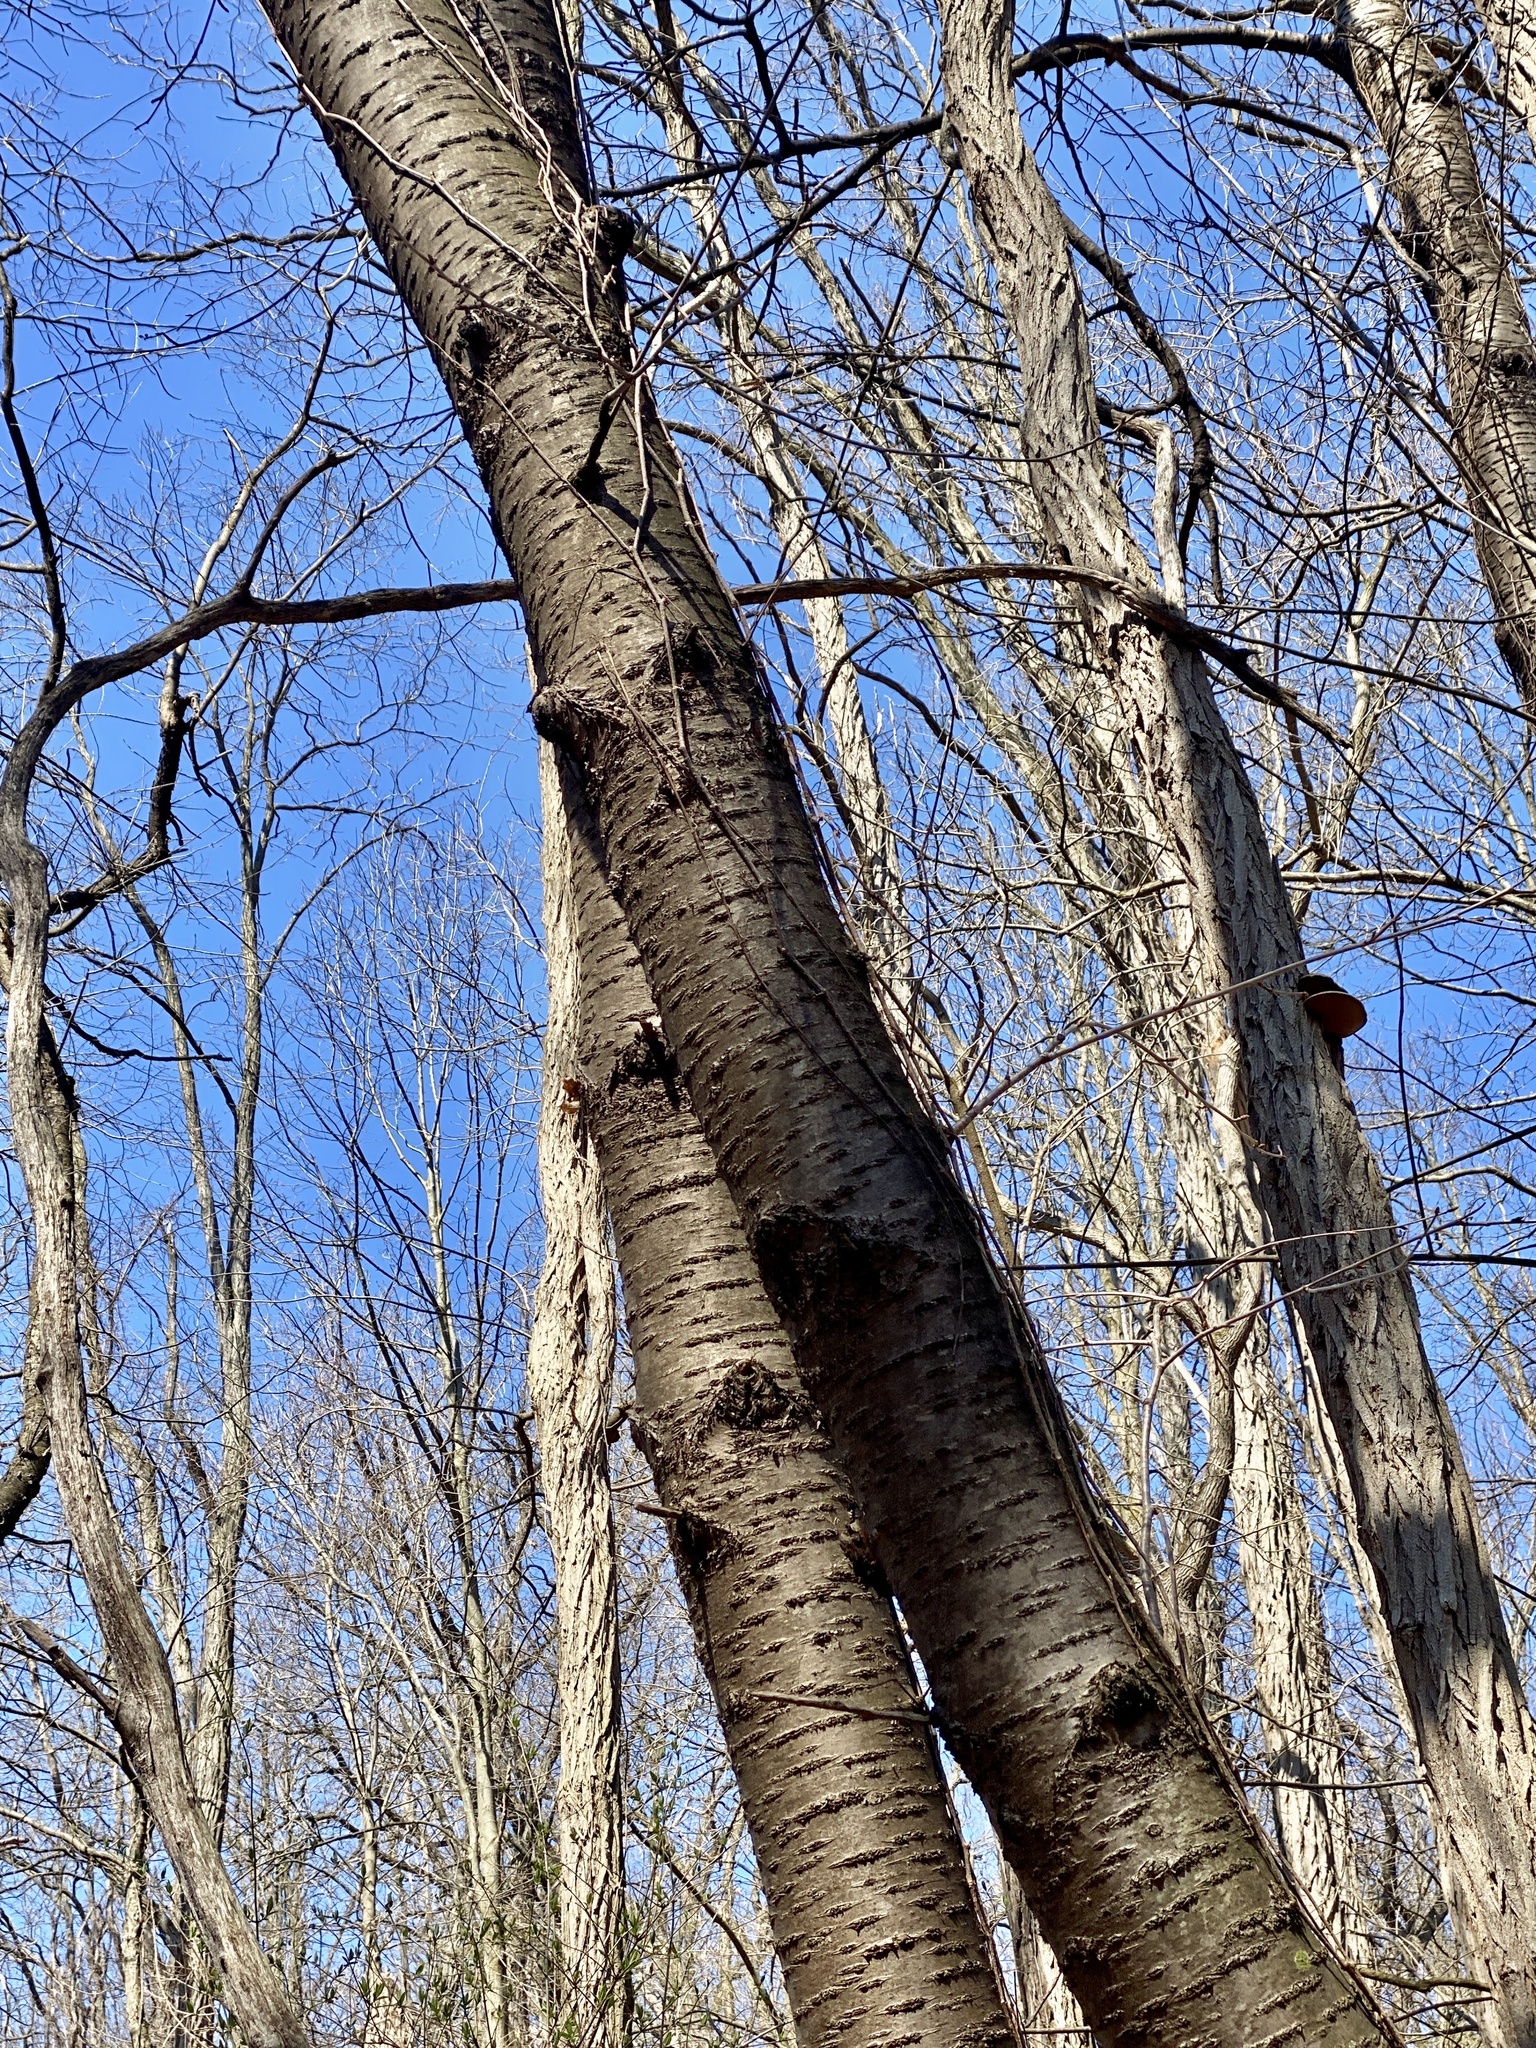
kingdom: Plantae
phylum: Tracheophyta
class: Magnoliopsida
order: Rosales
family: Rosaceae
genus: Prunus
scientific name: Prunus avium
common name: Sweet cherry
